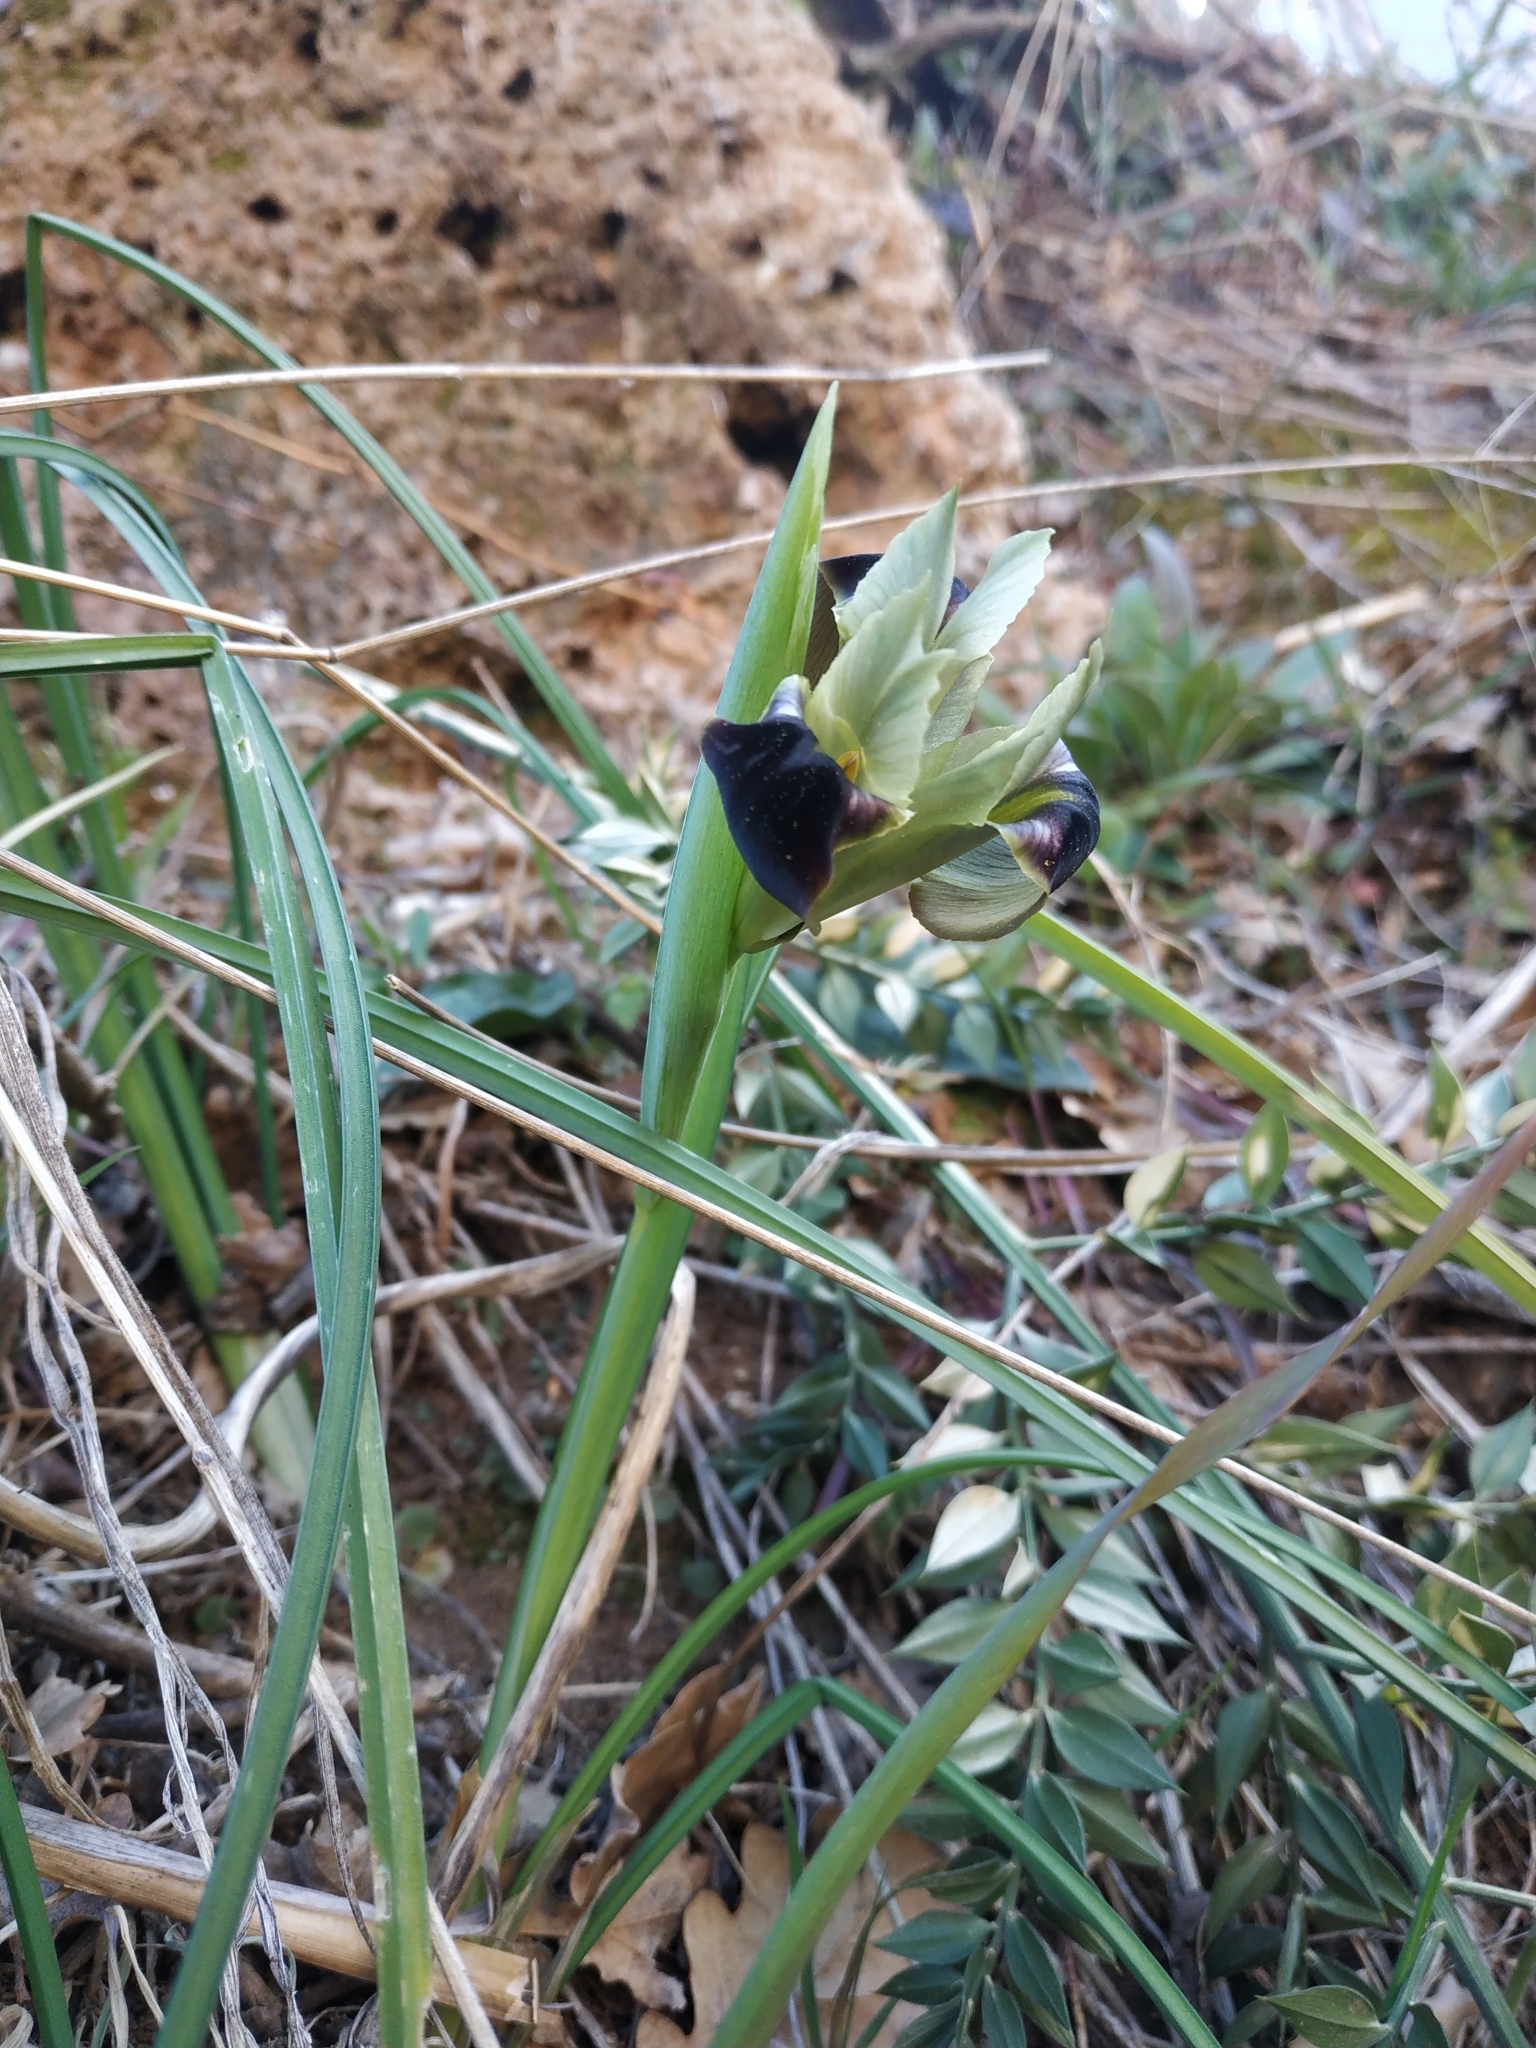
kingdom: Plantae
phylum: Tracheophyta
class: Liliopsida
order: Asparagales
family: Iridaceae
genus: Iris
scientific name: Iris tuberosa
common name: Snake's-head iris
